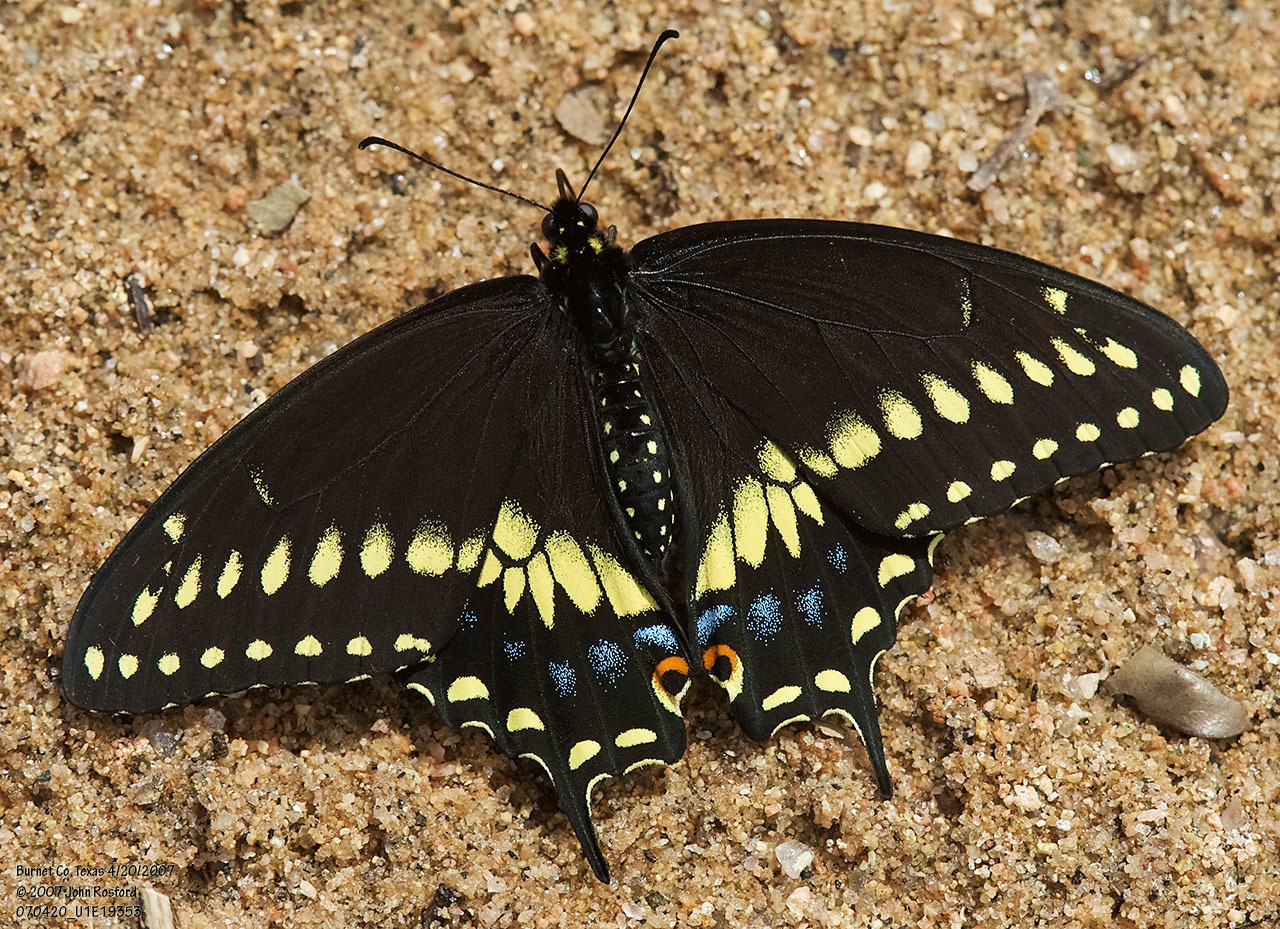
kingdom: Animalia
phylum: Arthropoda
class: Insecta
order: Lepidoptera
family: Papilionidae
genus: Papilio
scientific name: Papilio polyxenes
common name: Black swallowtail
